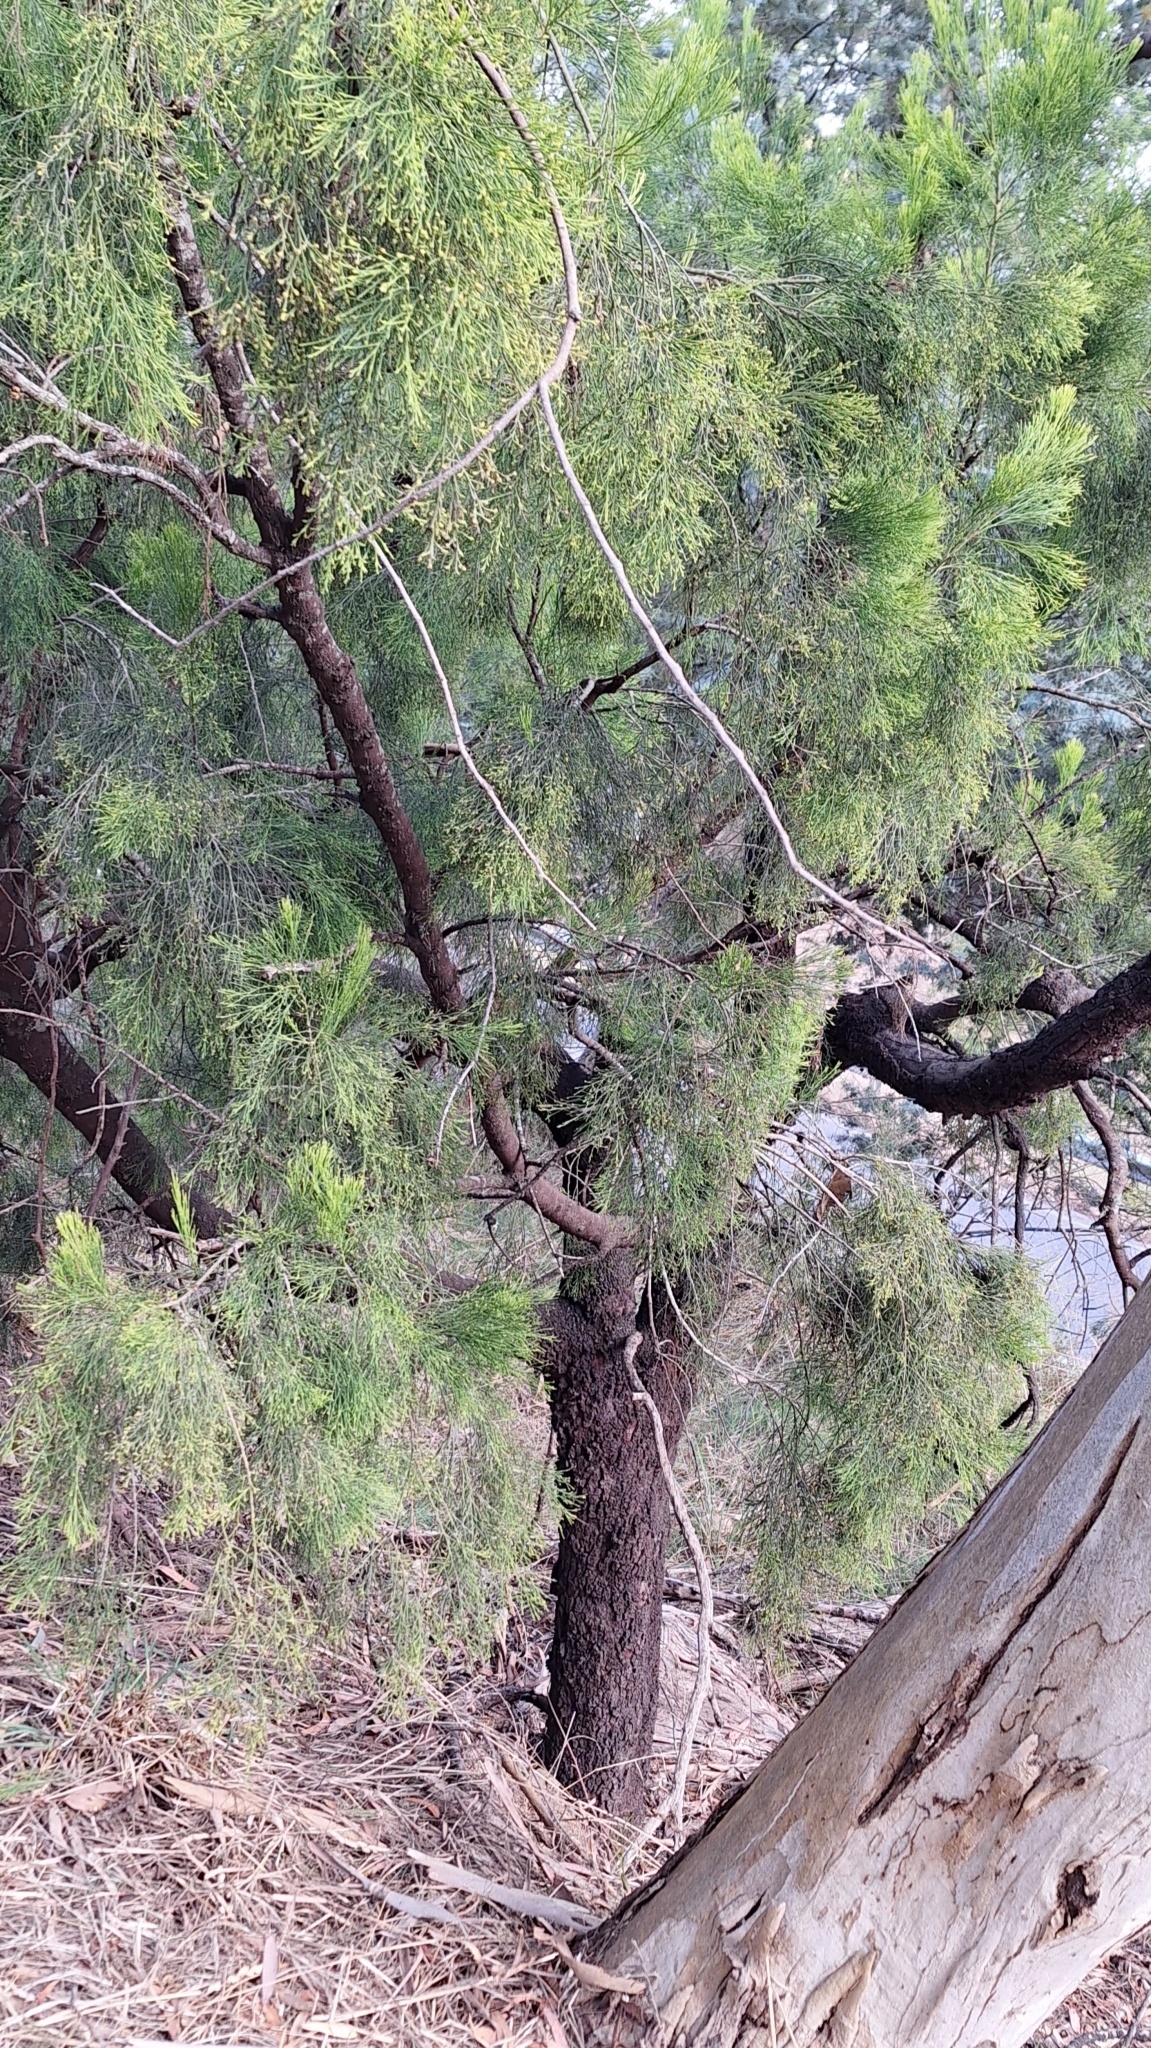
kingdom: Plantae
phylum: Tracheophyta
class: Magnoliopsida
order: Santalales
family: Santalaceae
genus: Exocarpos
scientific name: Exocarpos cupressiformis
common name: Cherry ballart
